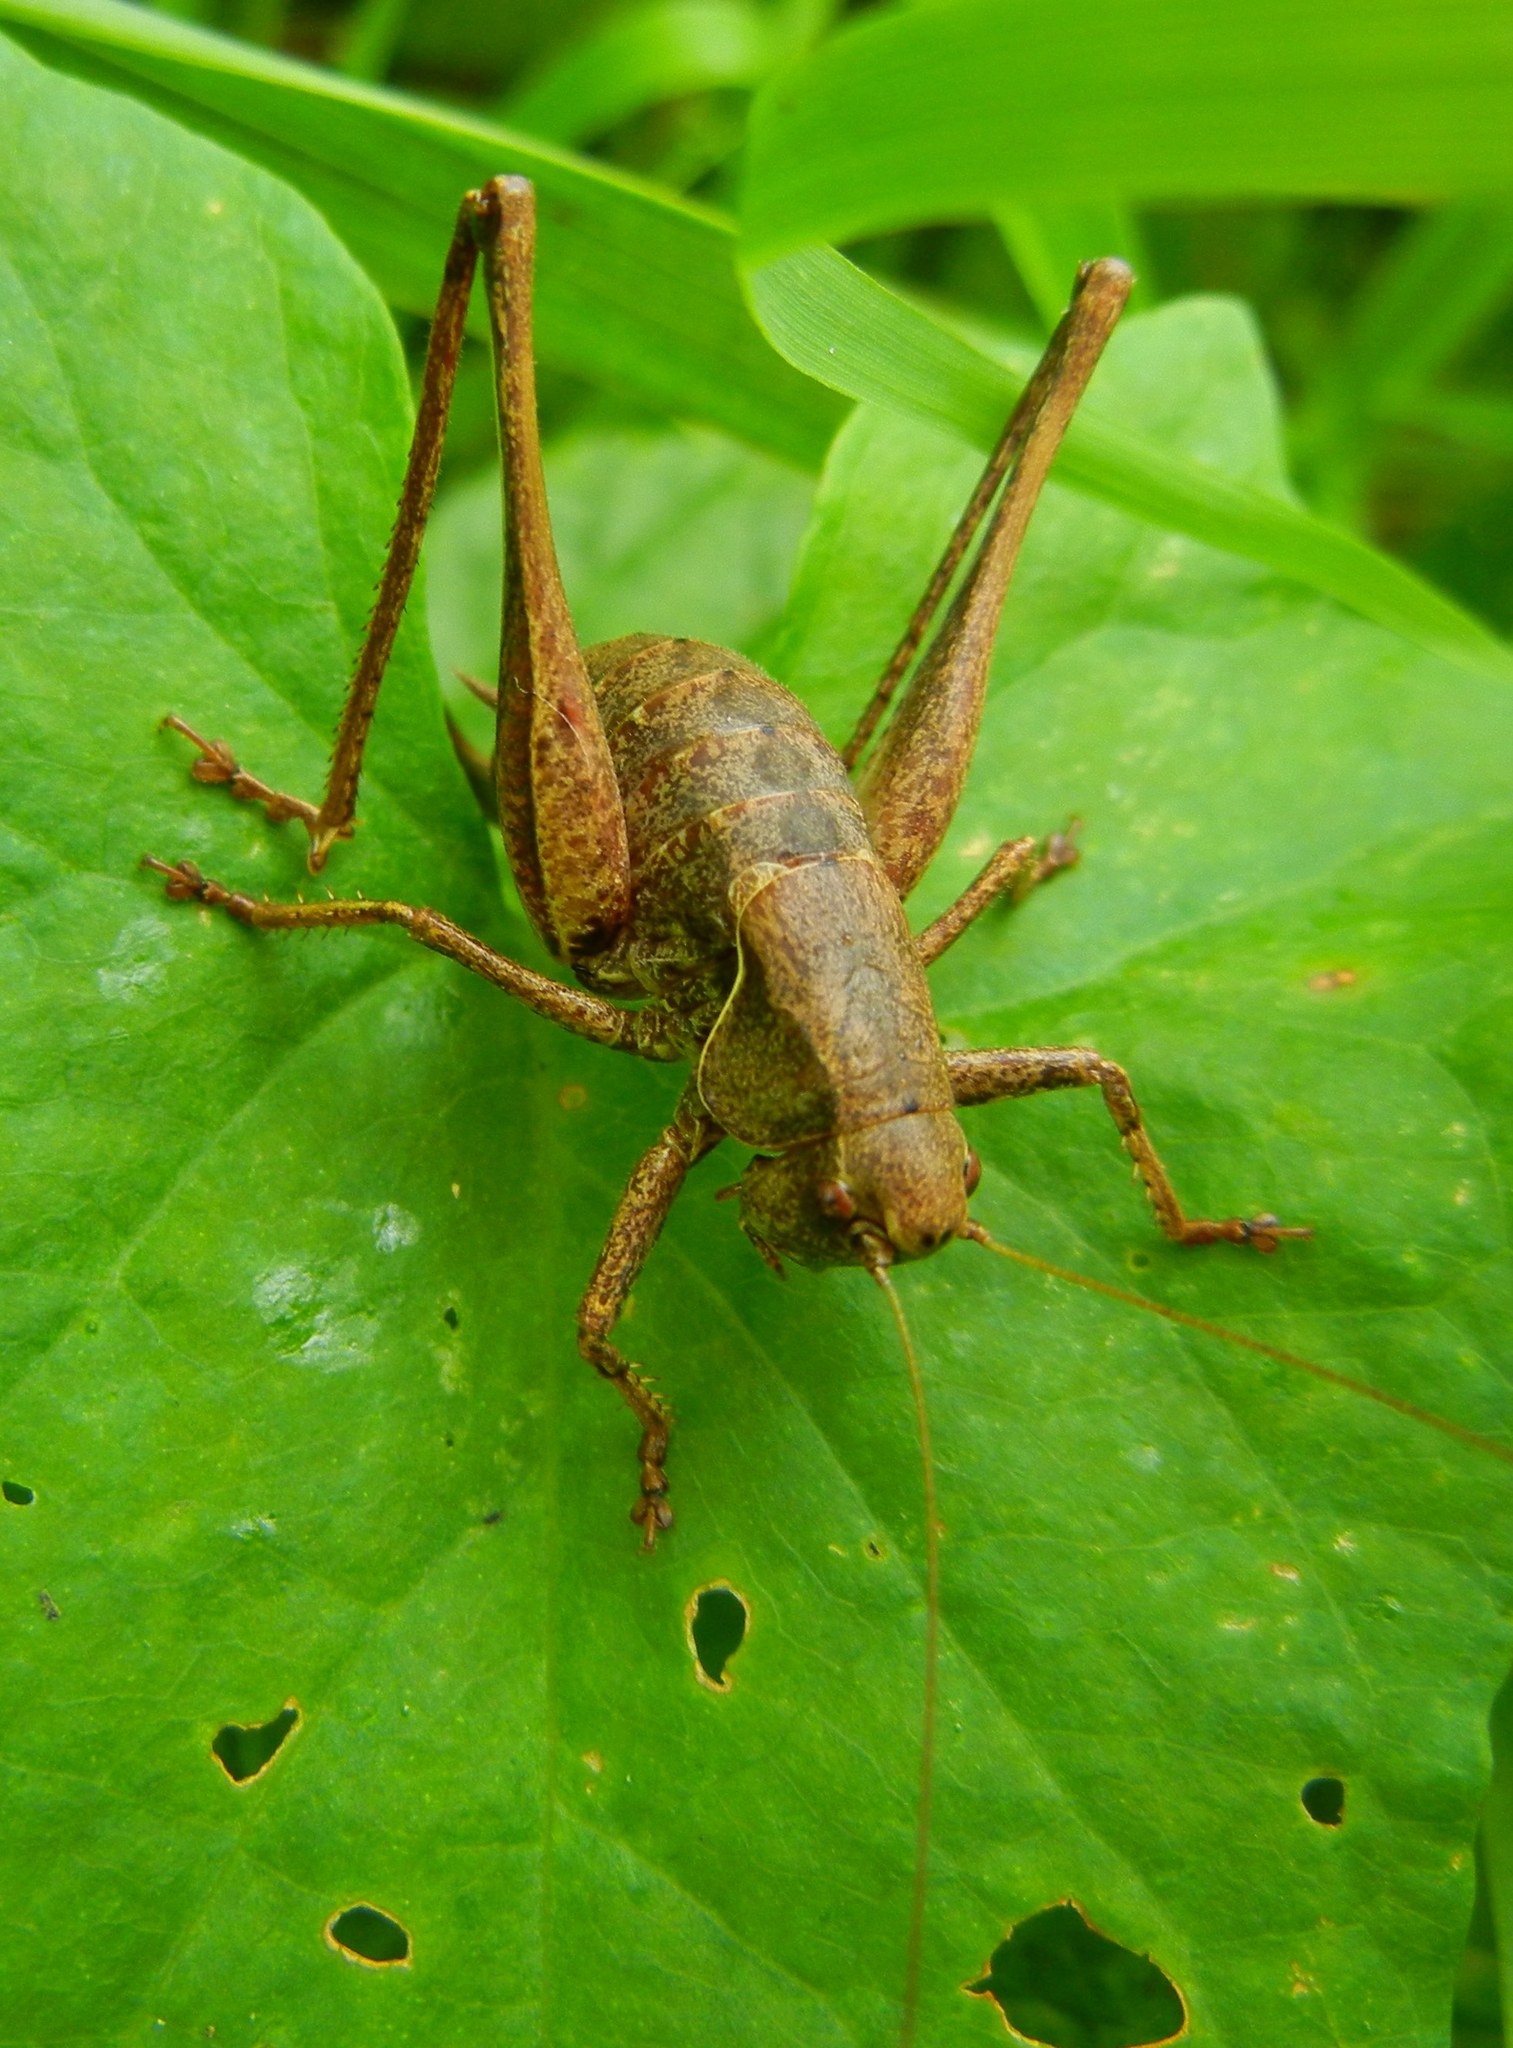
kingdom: Animalia
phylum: Arthropoda
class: Insecta
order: Orthoptera
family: Tettigoniidae
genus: Pholidoptera
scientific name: Pholidoptera griseoaptera
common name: Dark bush-cricket
